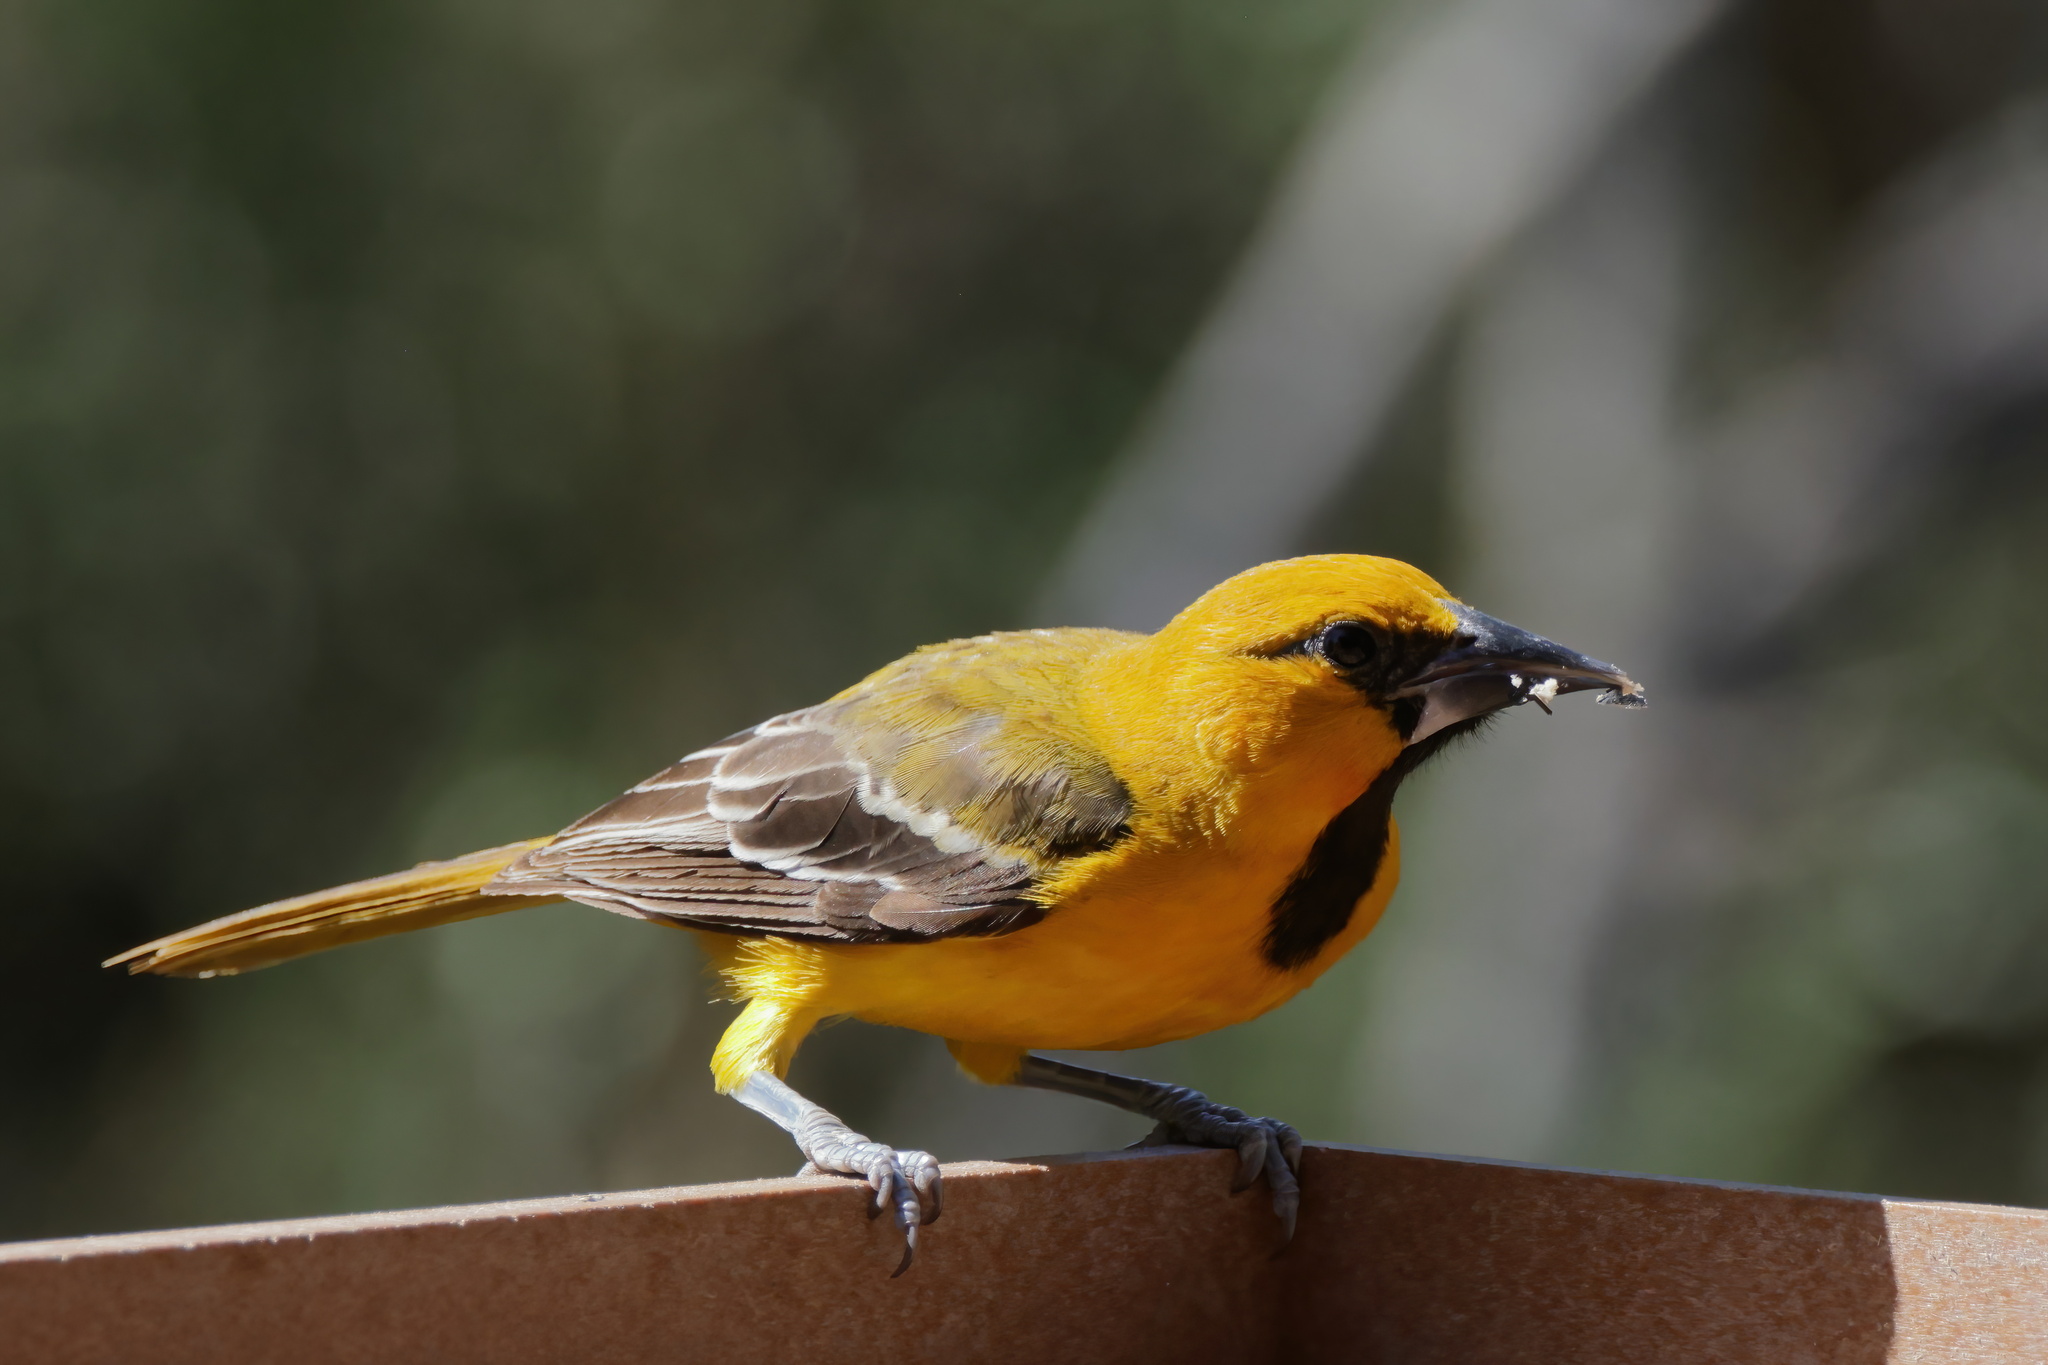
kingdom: Animalia
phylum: Chordata
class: Aves
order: Passeriformes
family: Icteridae
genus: Icterus
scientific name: Icterus gularis
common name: Altamira oriole
